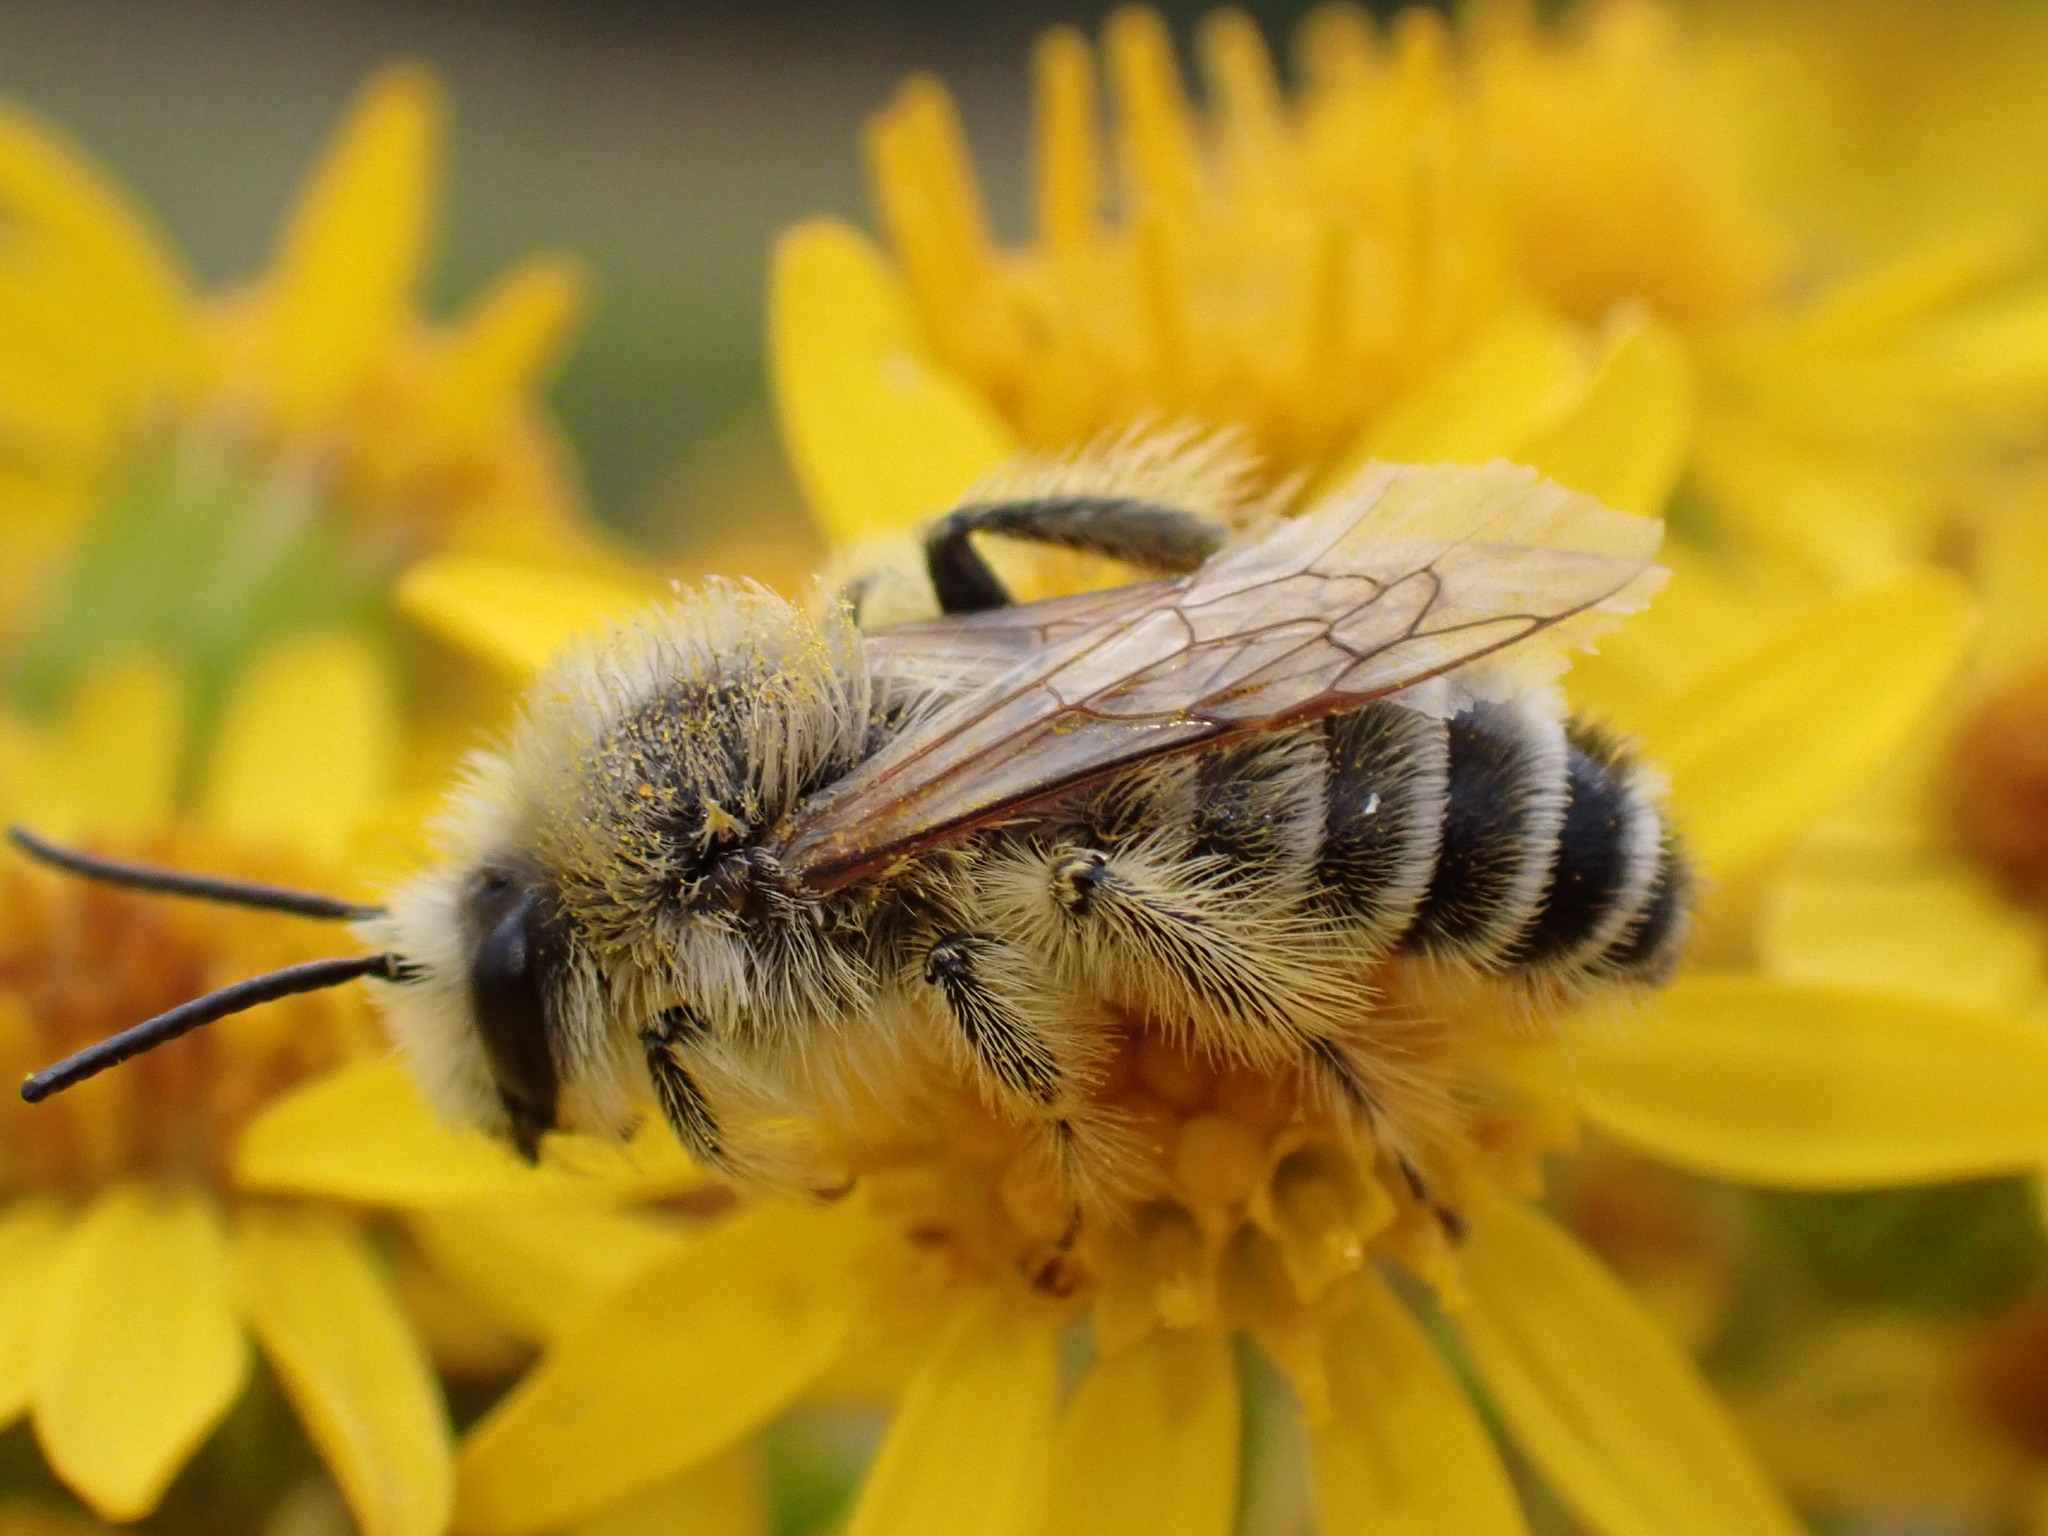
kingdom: Animalia
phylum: Arthropoda
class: Insecta
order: Hymenoptera
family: Melittidae
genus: Dasypoda
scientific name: Dasypoda hirtipes
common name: Pantaloon bee
